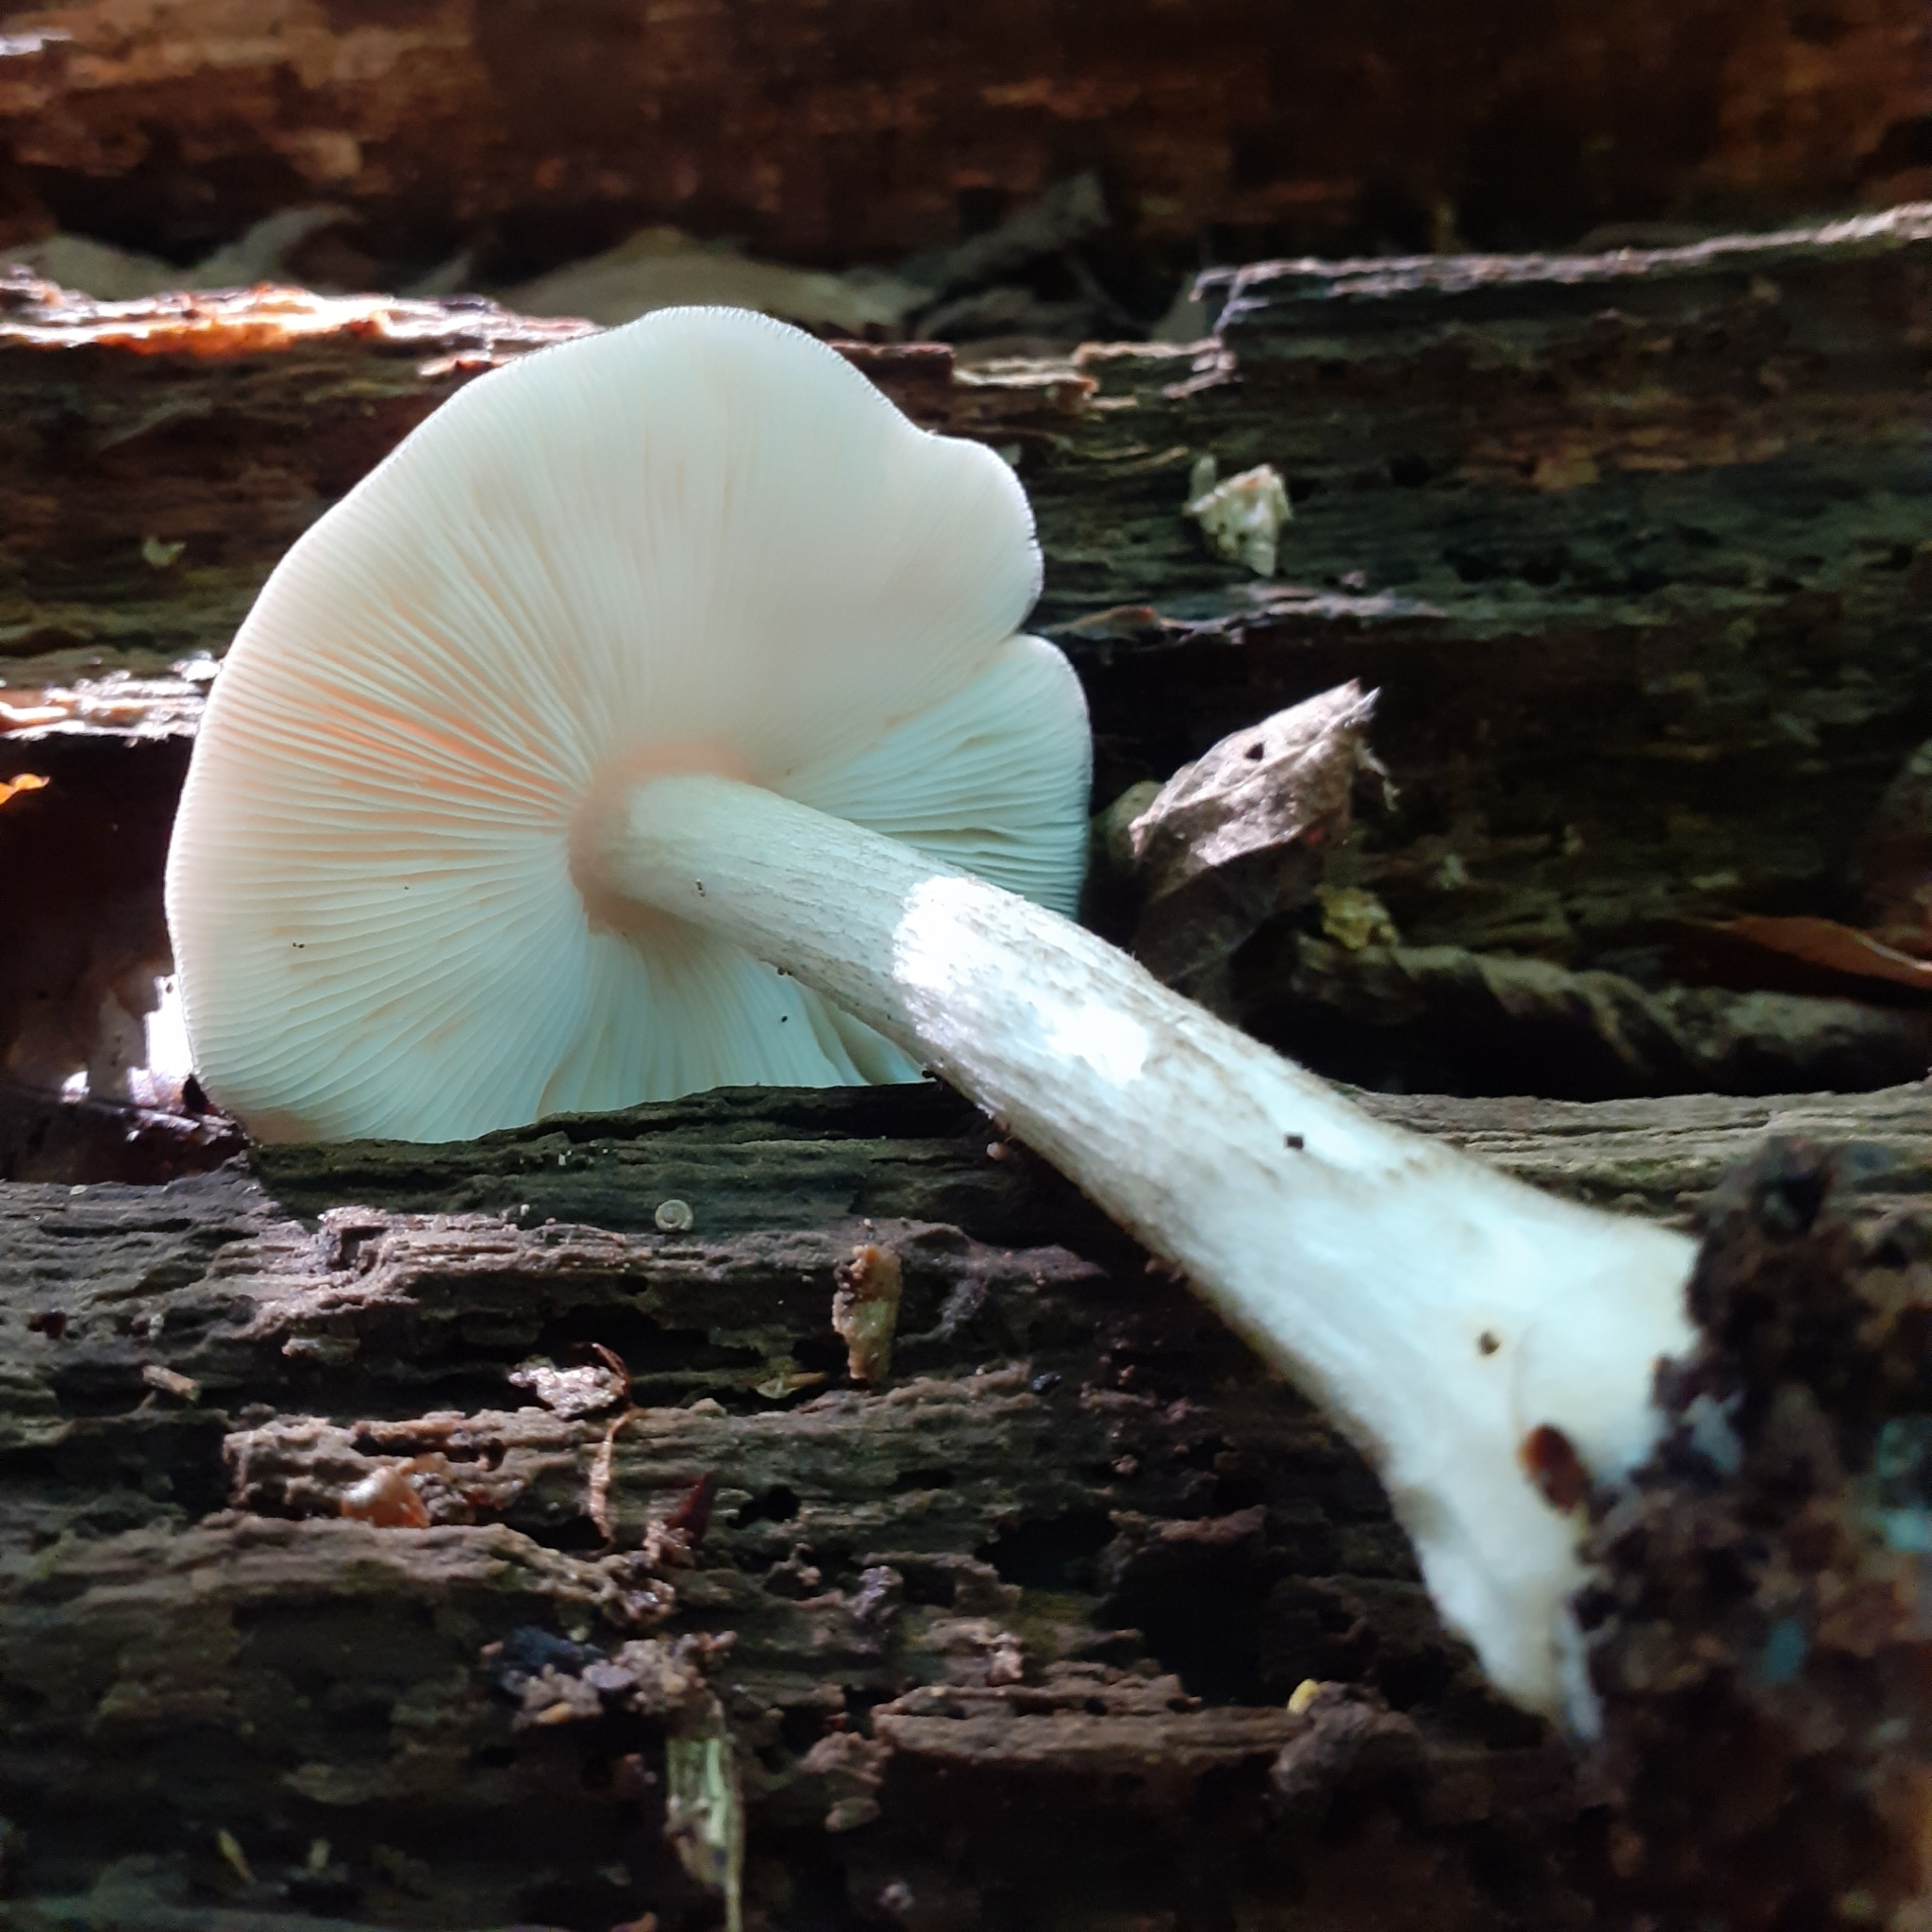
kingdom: Fungi
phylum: Basidiomycota
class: Agaricomycetes
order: Agaricales
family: Pluteaceae
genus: Pluteus
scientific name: Pluteus salicinus
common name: Willow shield
